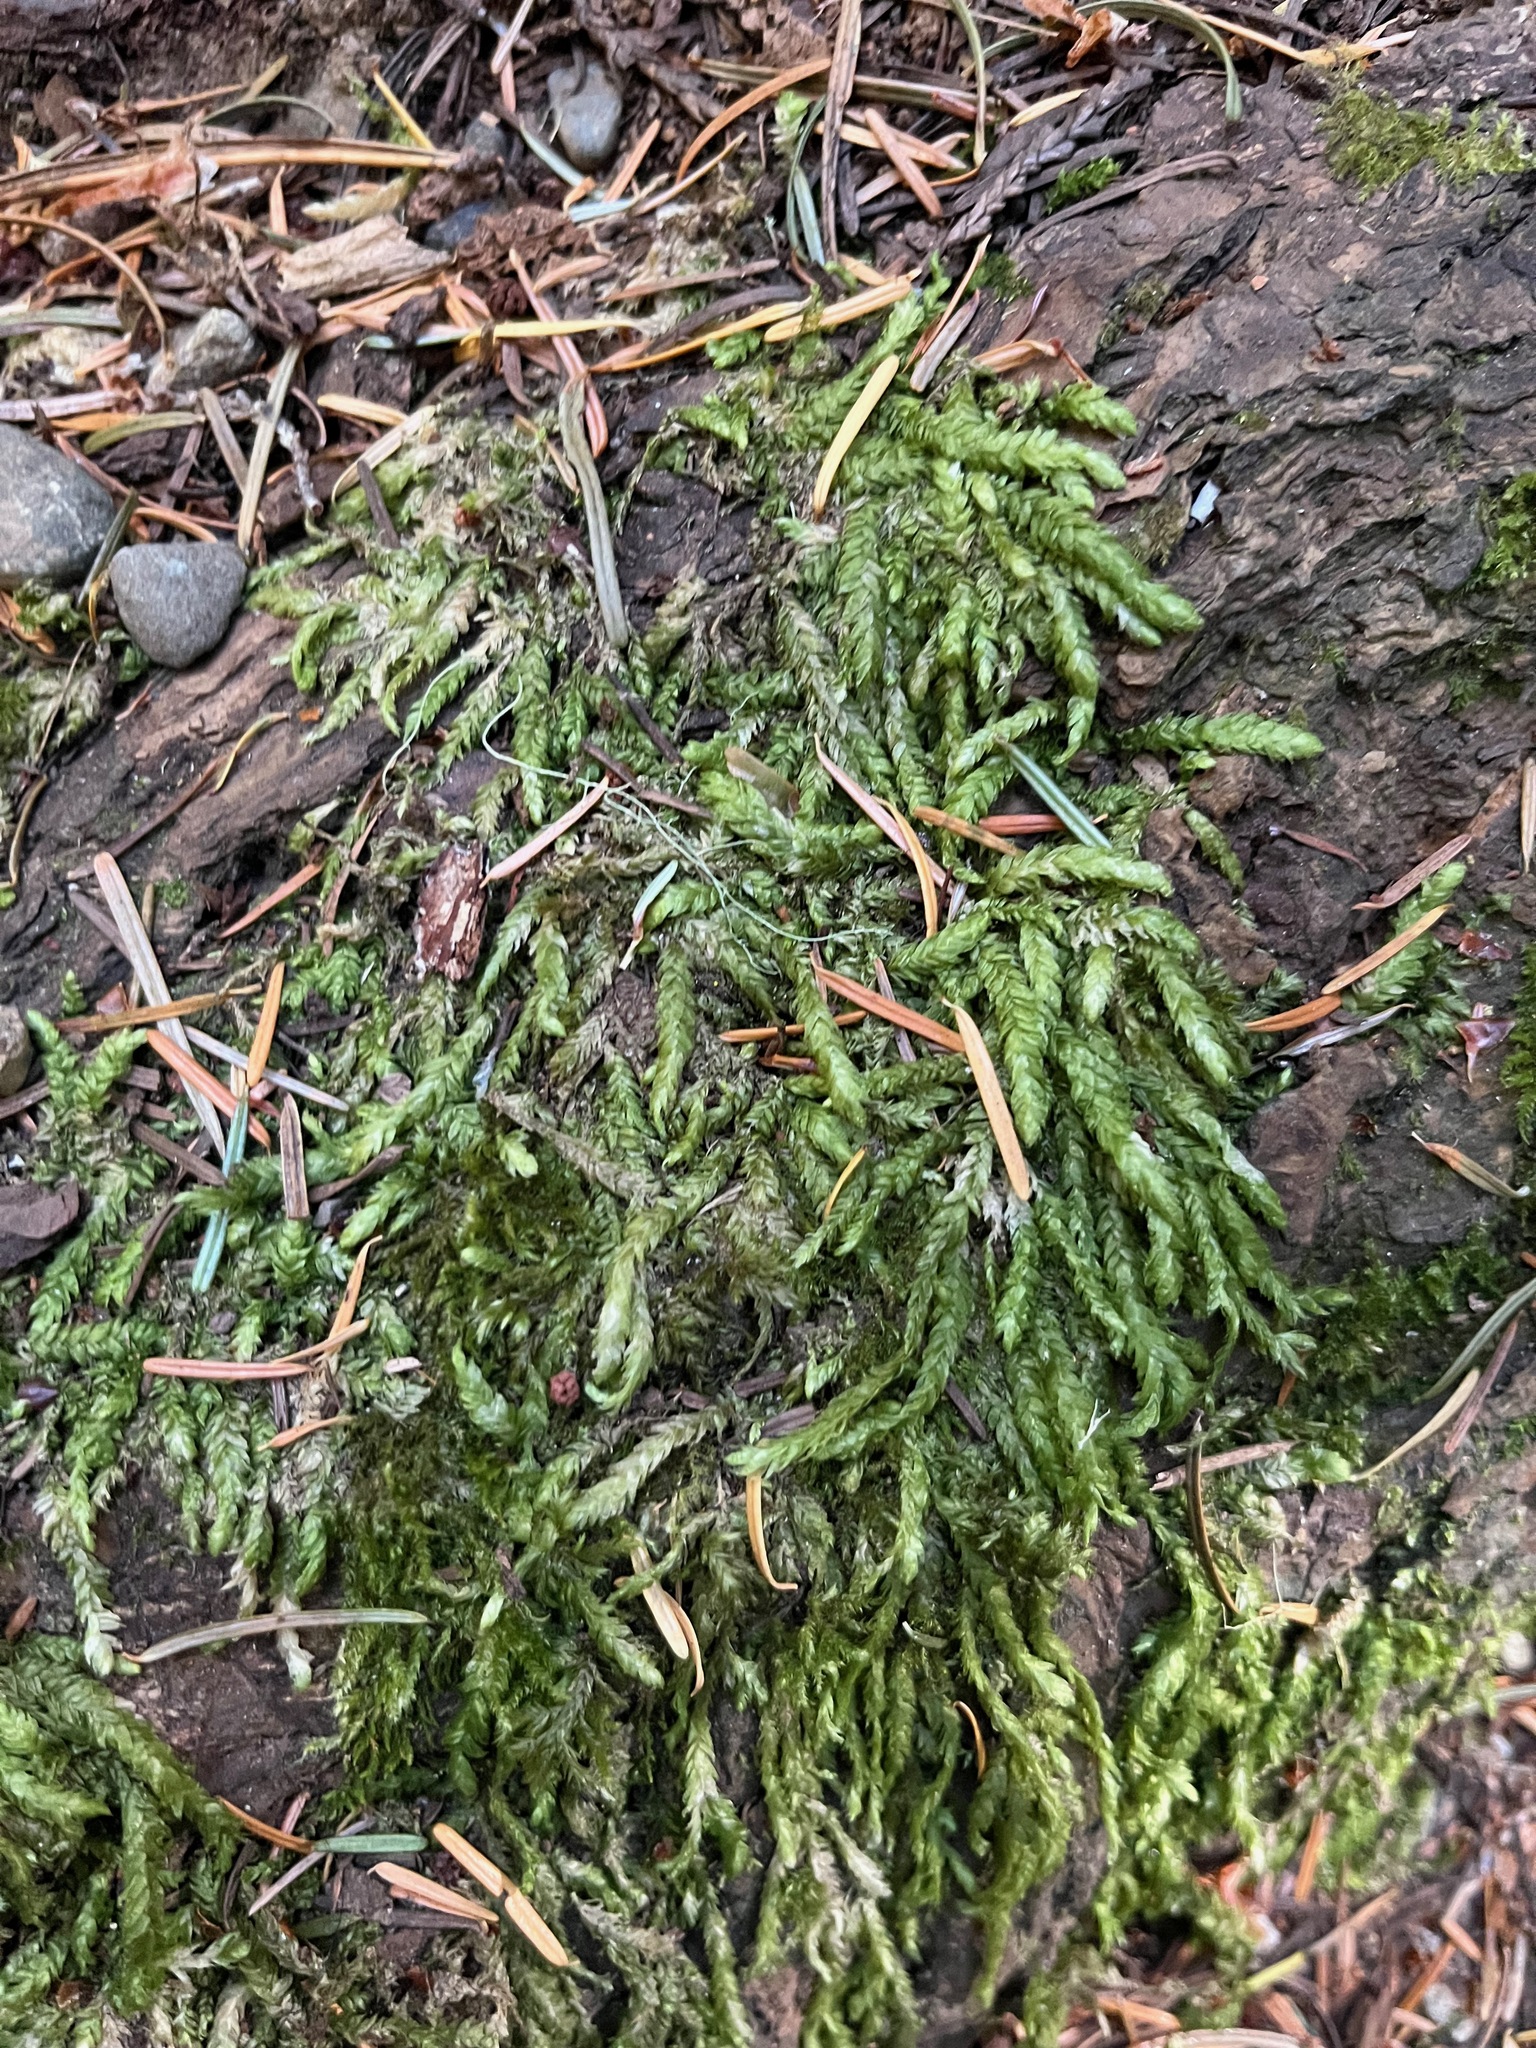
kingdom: Plantae
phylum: Bryophyta
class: Bryopsida
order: Hypnales
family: Plagiotheciaceae
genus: Plagiothecium
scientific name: Plagiothecium undulatum
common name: Waved silk-moss
